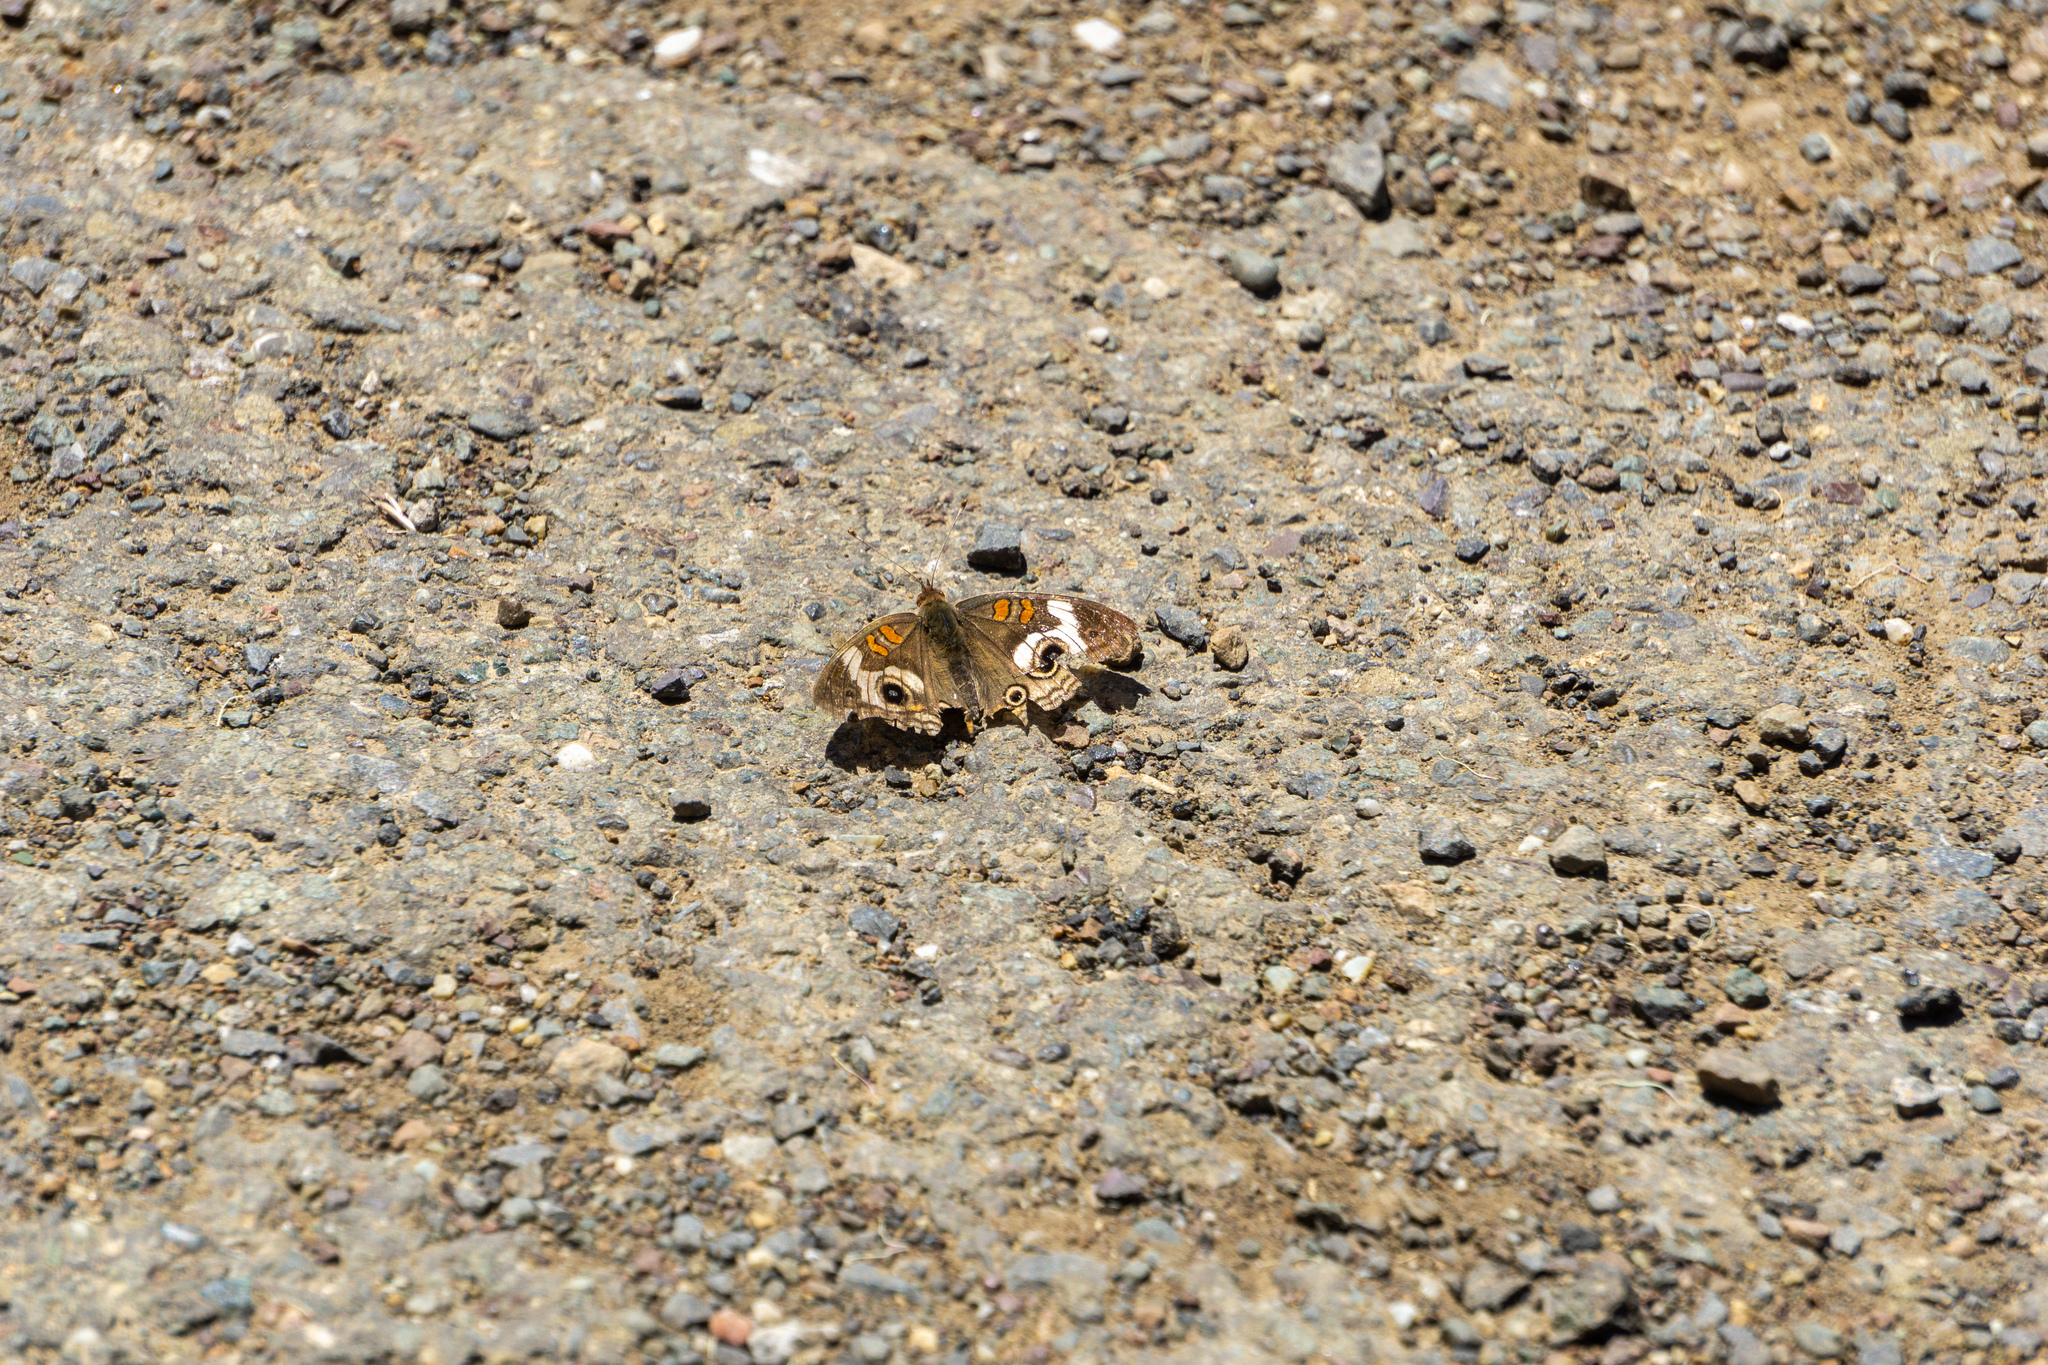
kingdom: Animalia
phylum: Arthropoda
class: Insecta
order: Lepidoptera
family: Nymphalidae
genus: Junonia
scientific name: Junonia grisea
